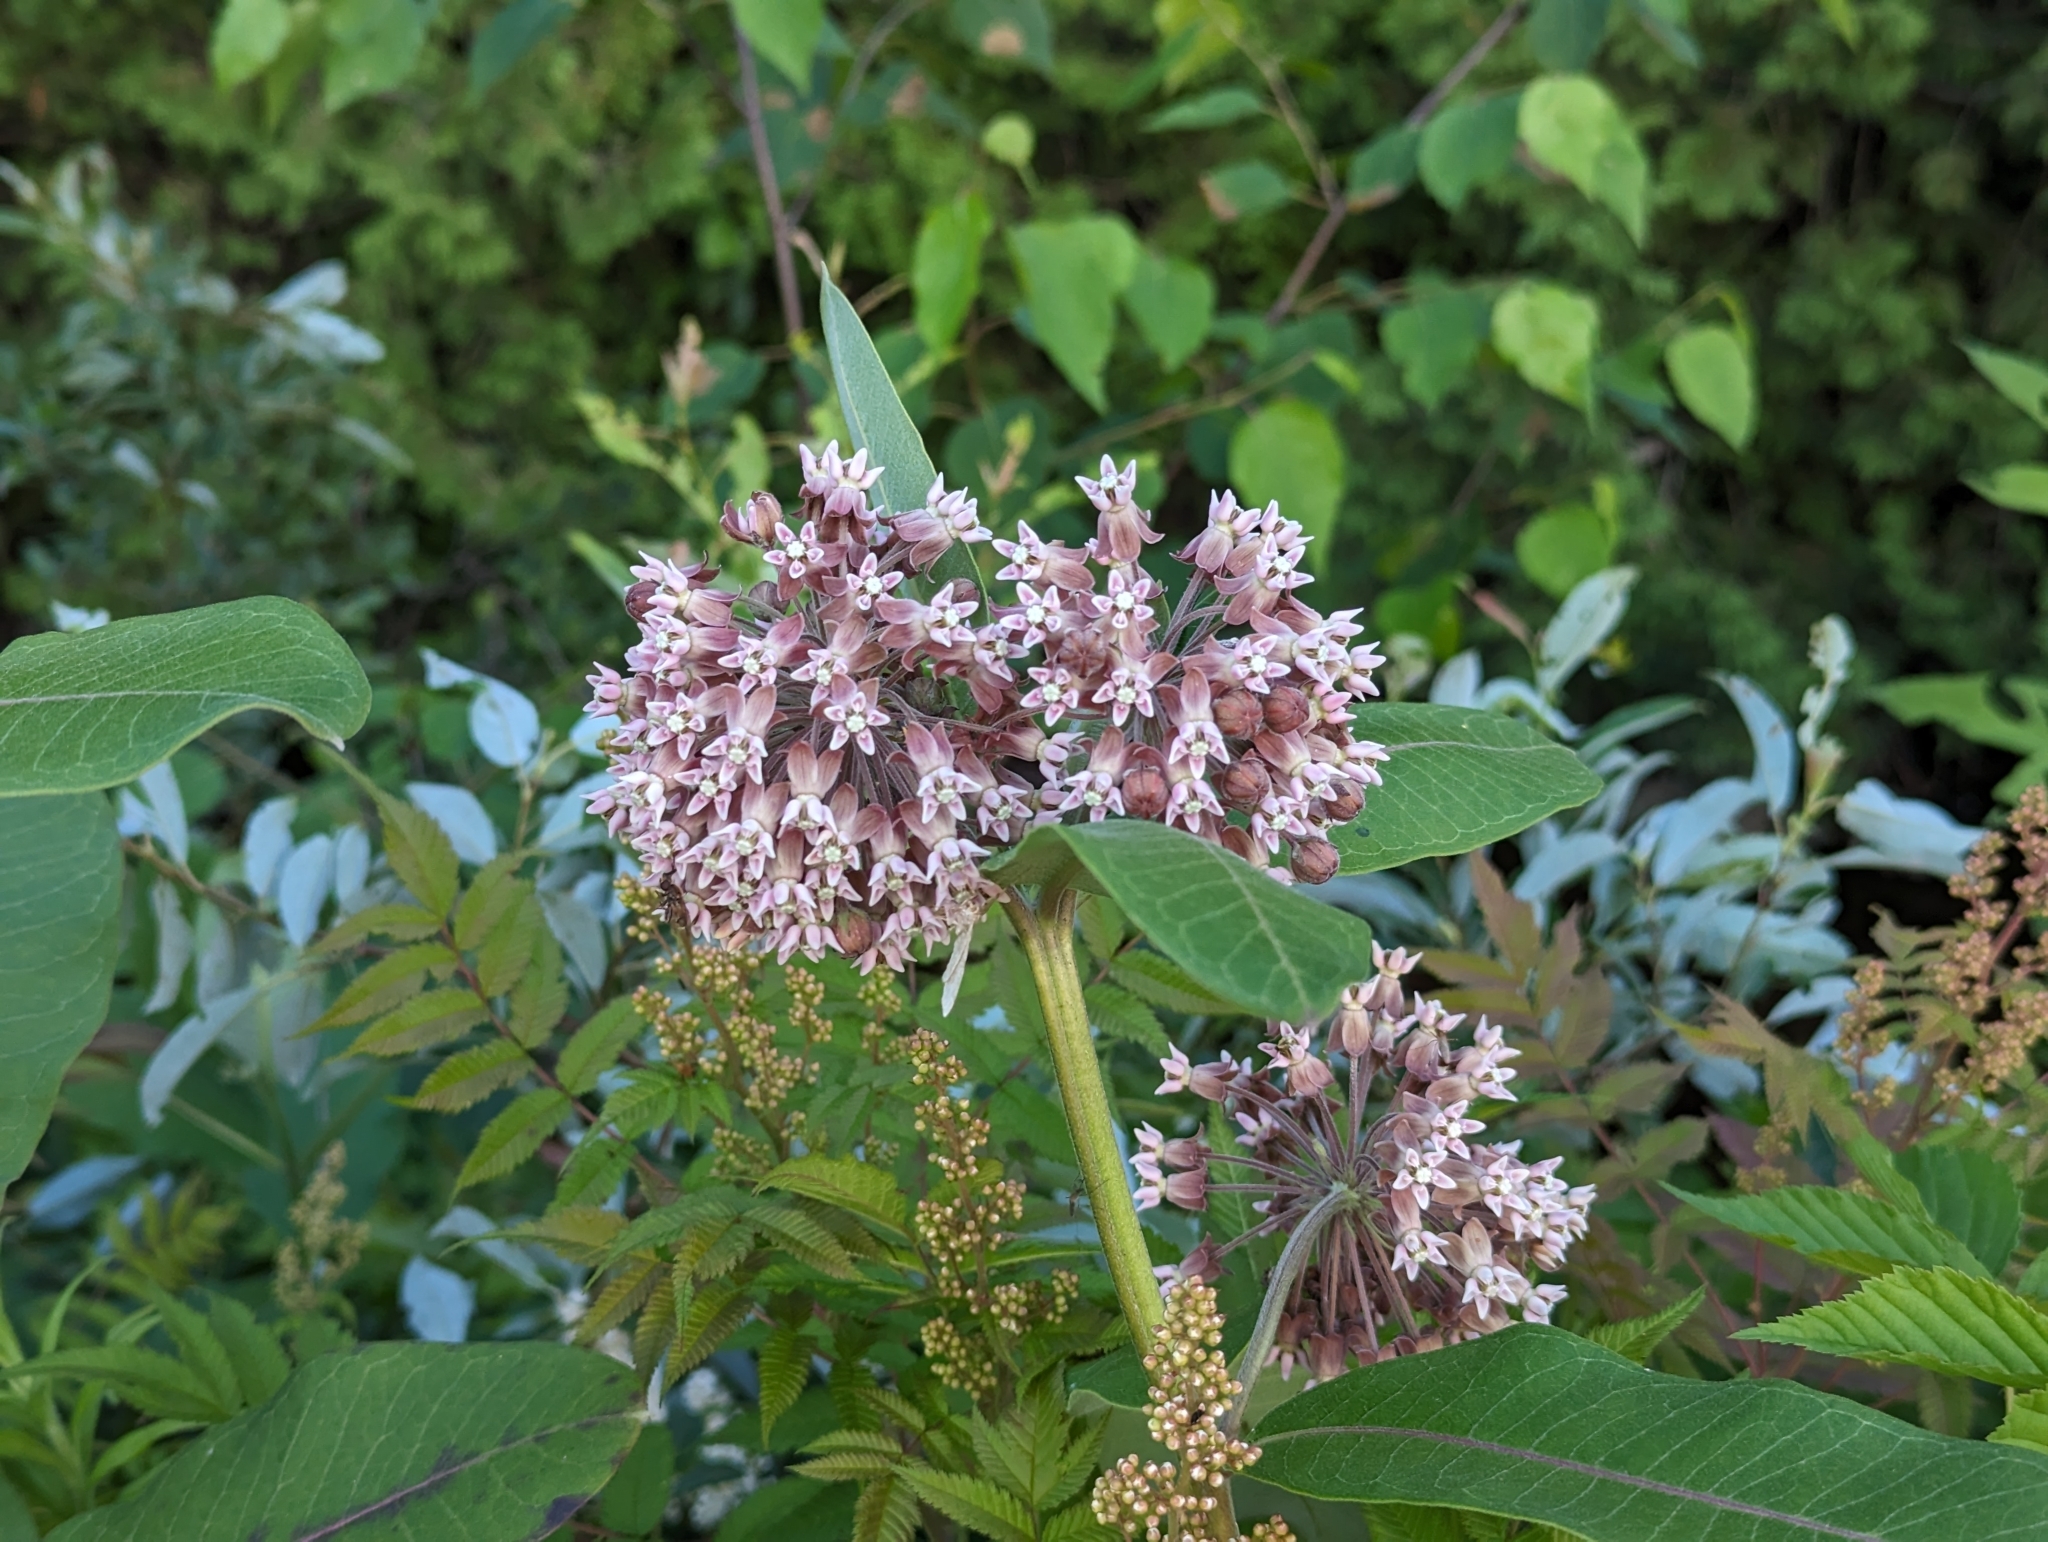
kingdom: Plantae
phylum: Tracheophyta
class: Magnoliopsida
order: Gentianales
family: Apocynaceae
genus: Asclepias
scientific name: Asclepias syriaca
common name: Common milkweed
